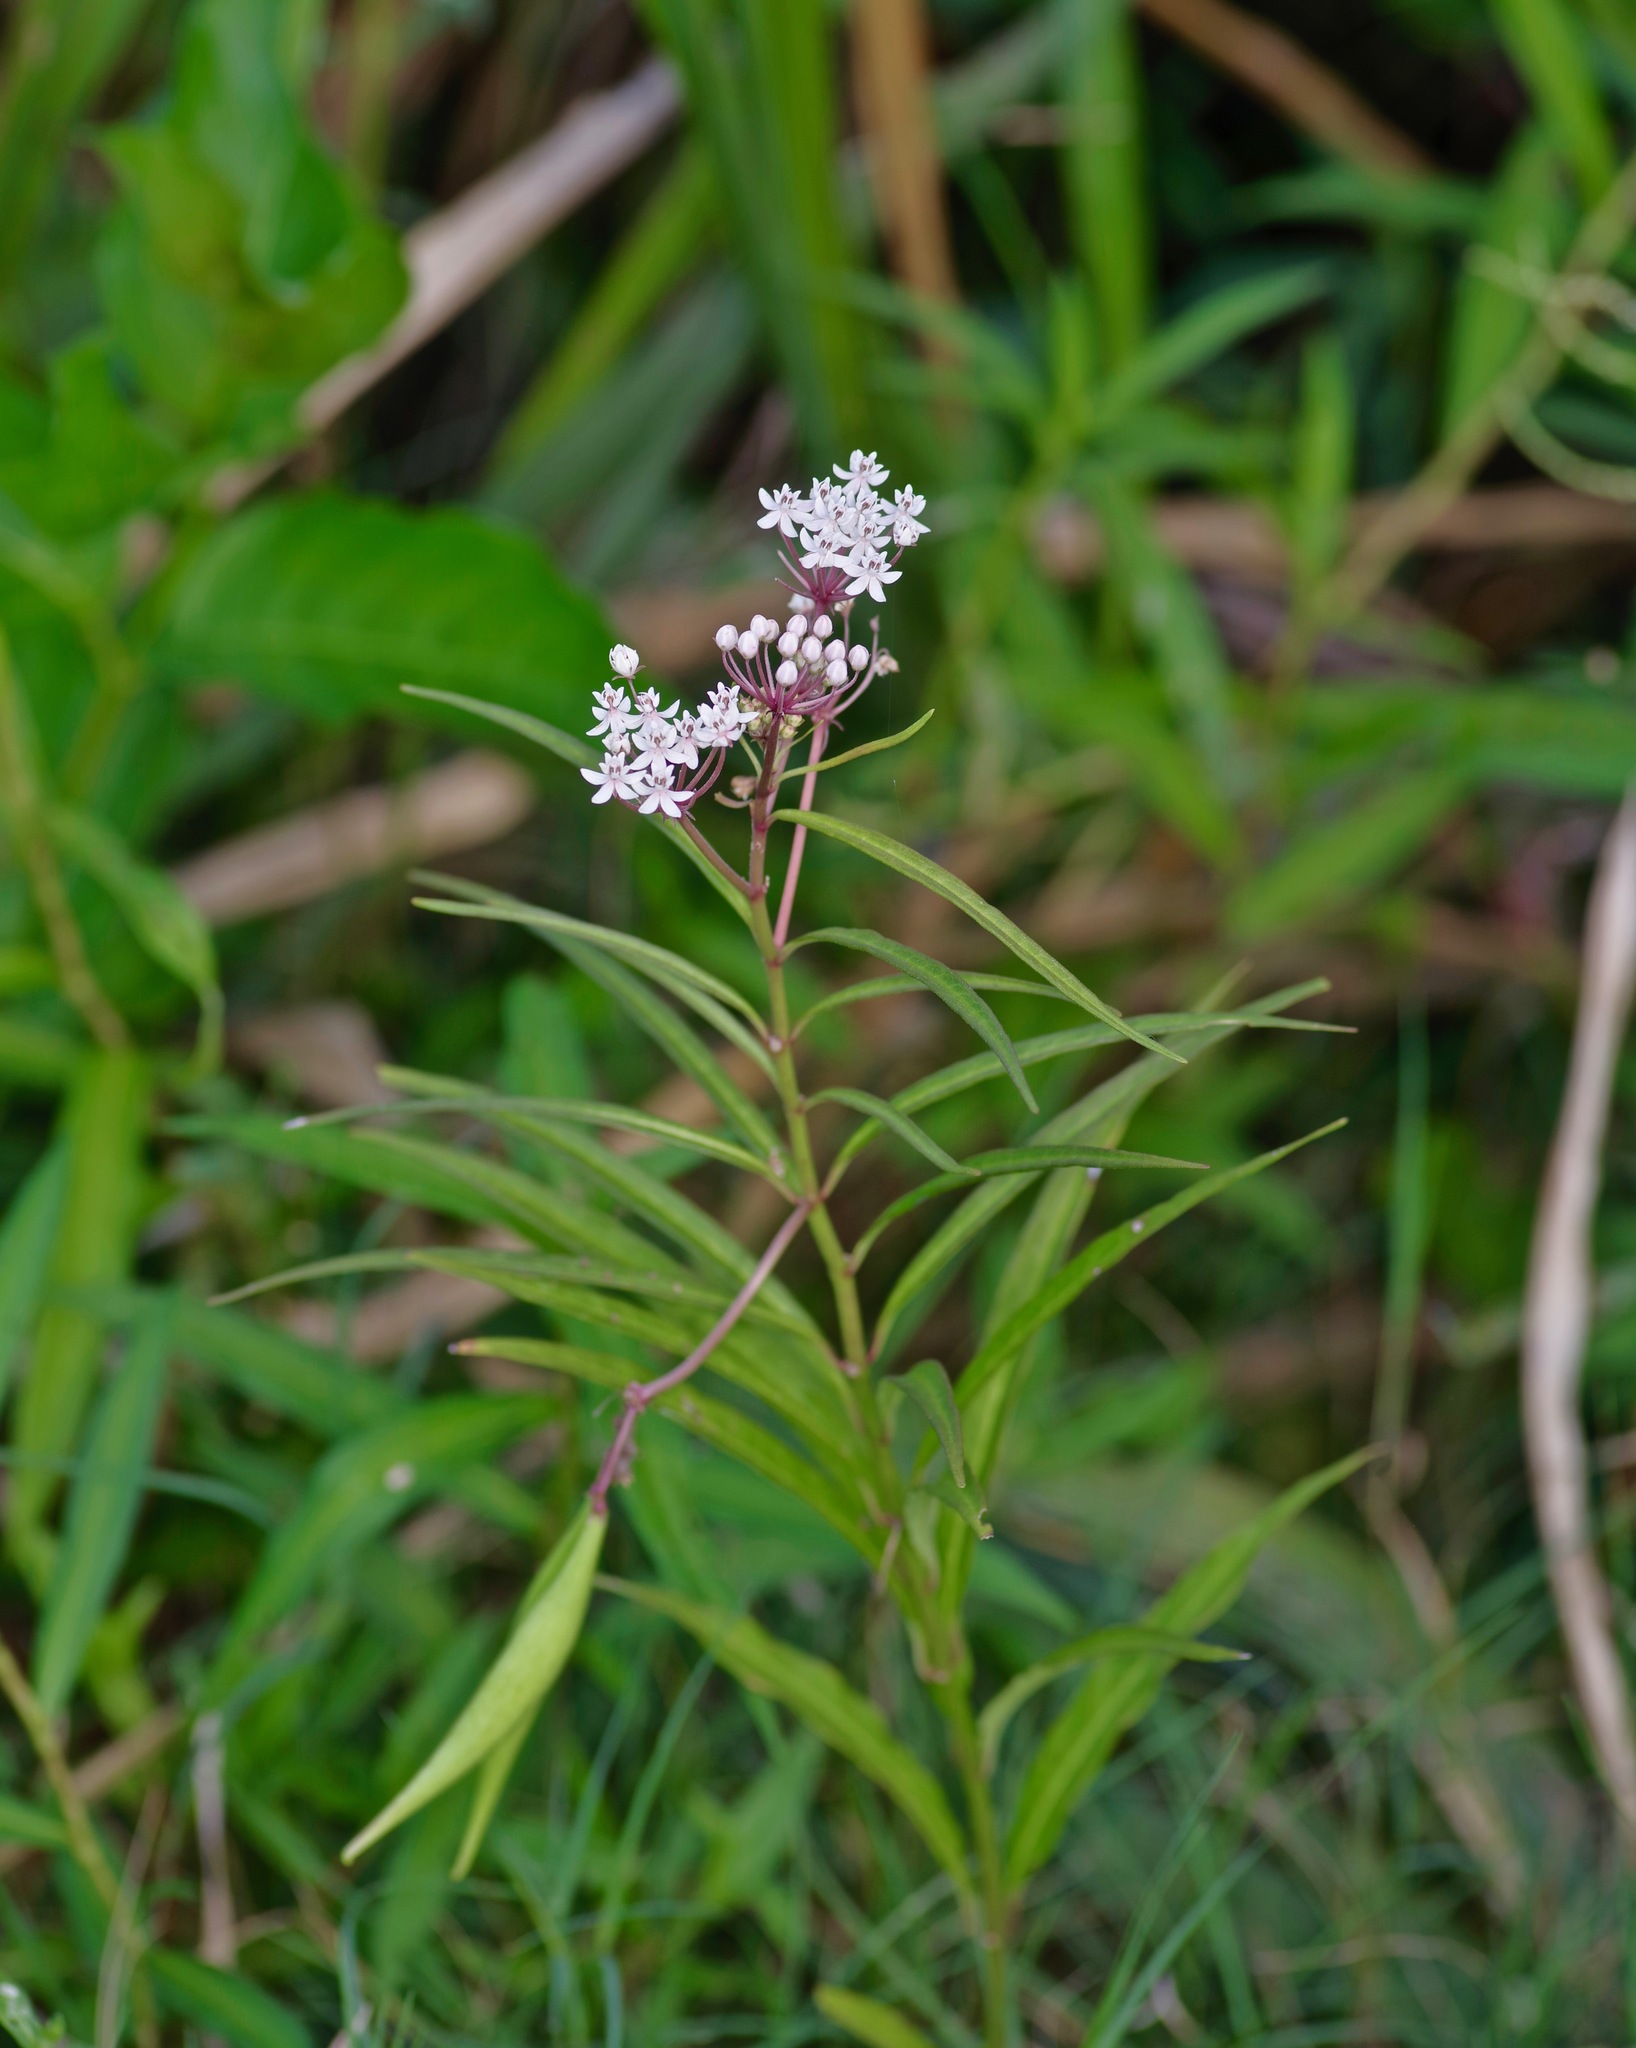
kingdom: Plantae
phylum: Tracheophyta
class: Magnoliopsida
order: Gentianales
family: Apocynaceae
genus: Asclepias
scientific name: Asclepias perennis
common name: Smooth-seed milkweed
